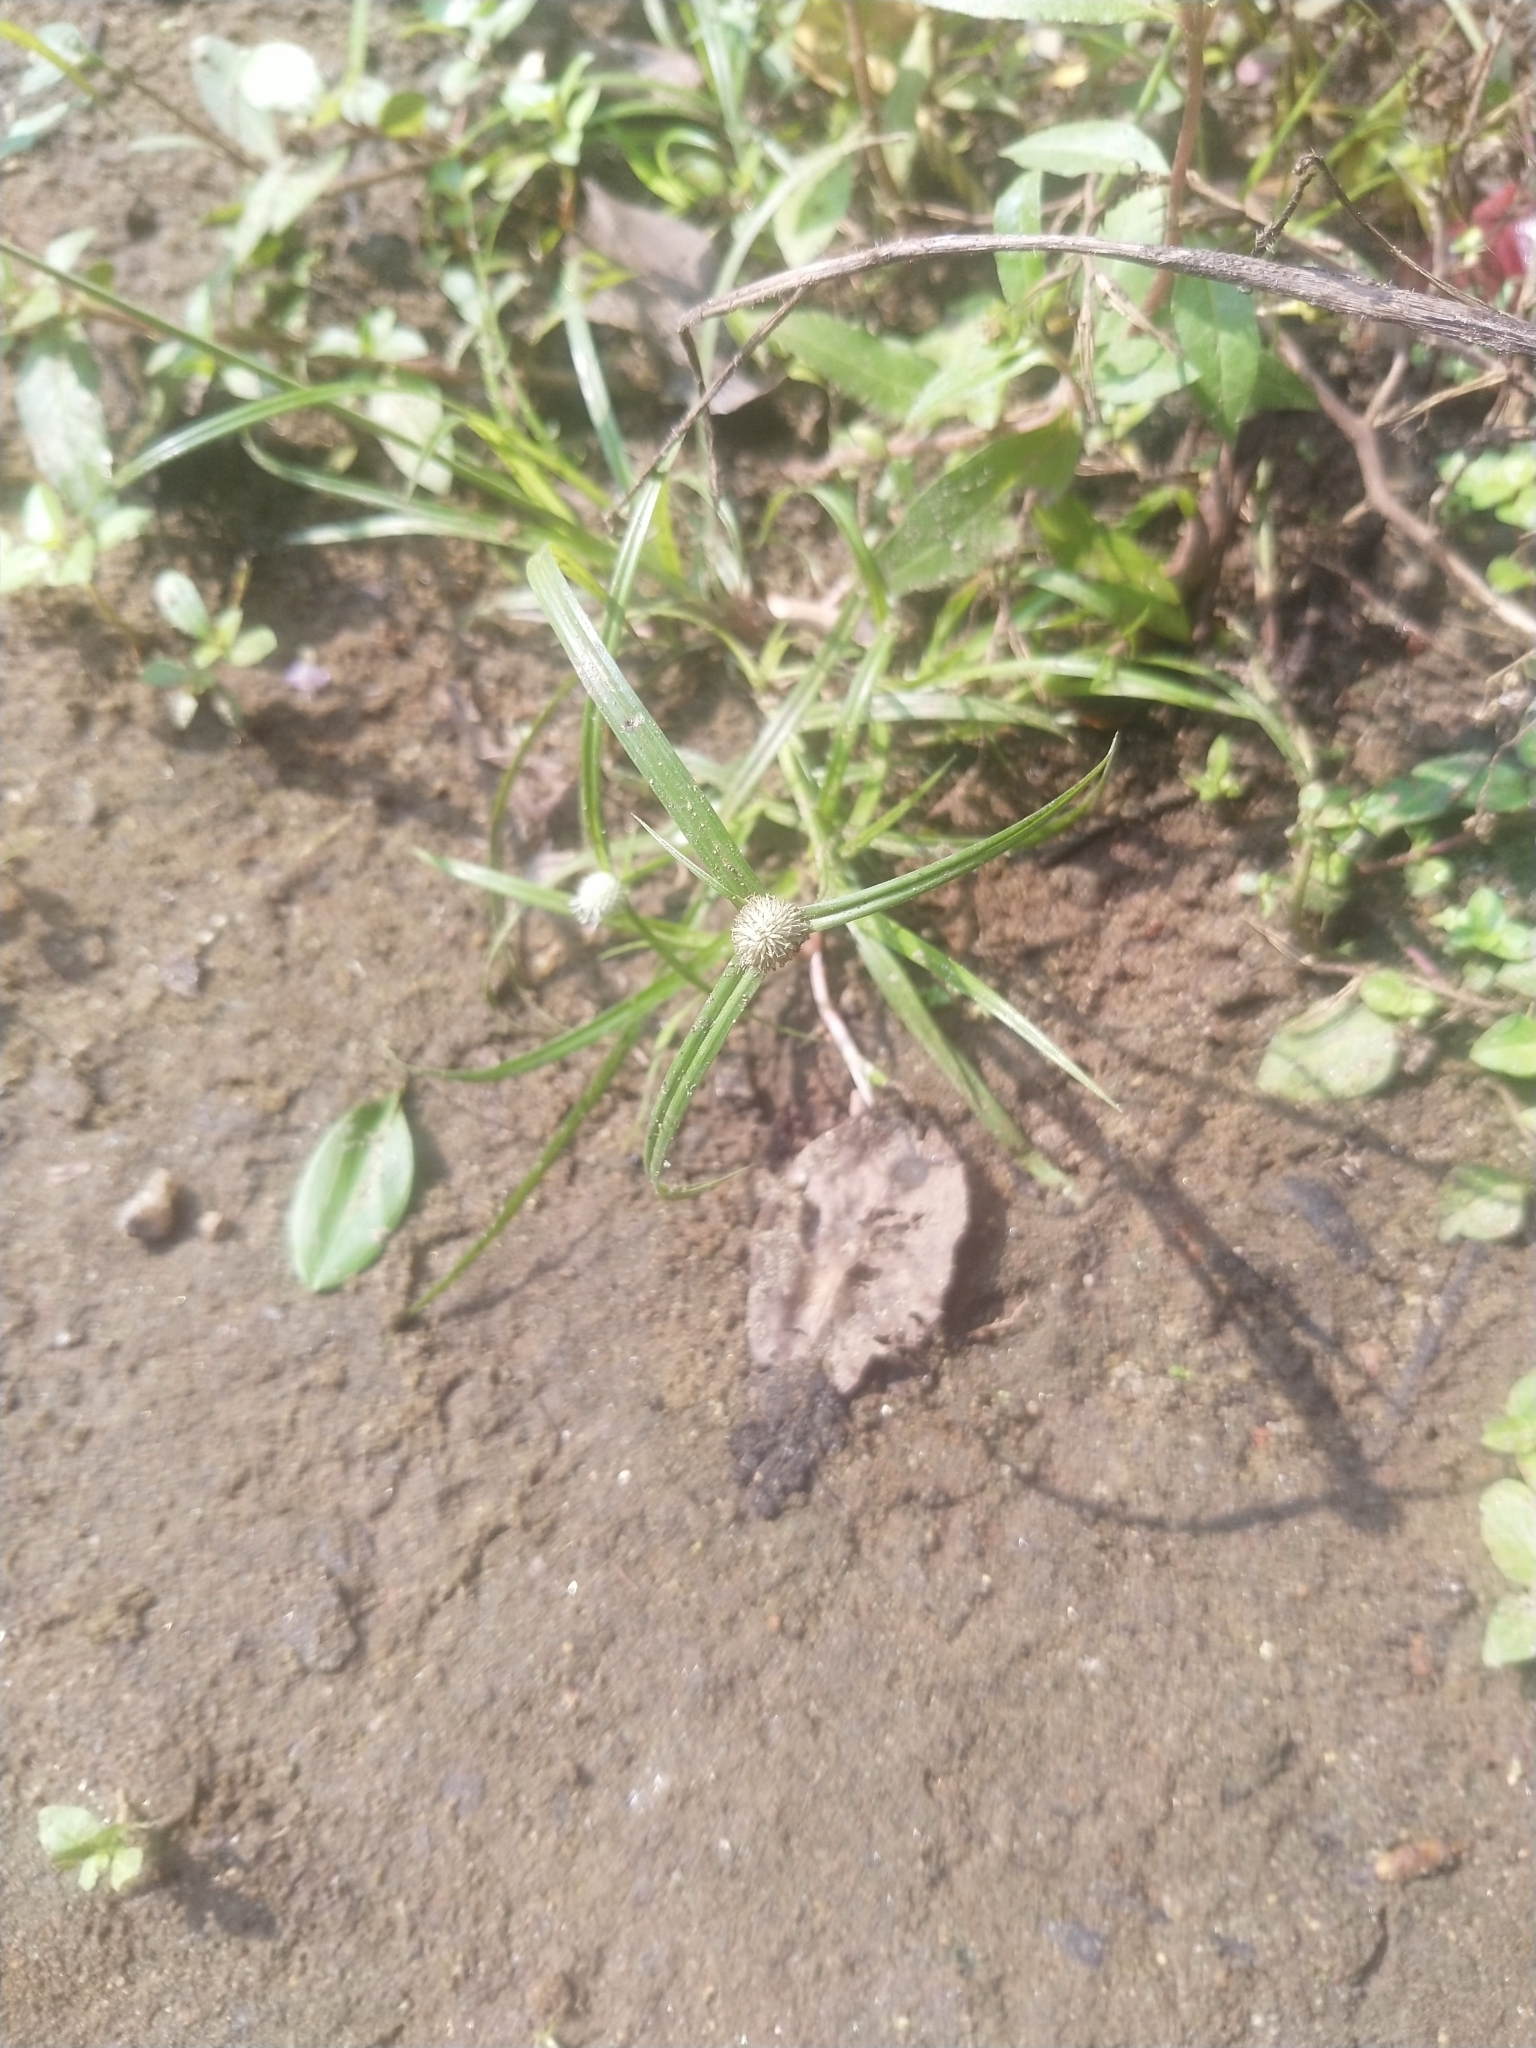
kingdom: Plantae
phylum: Tracheophyta
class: Liliopsida
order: Poales
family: Cyperaceae
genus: Cyperus
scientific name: Cyperus mindorensis
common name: Flatsedge
